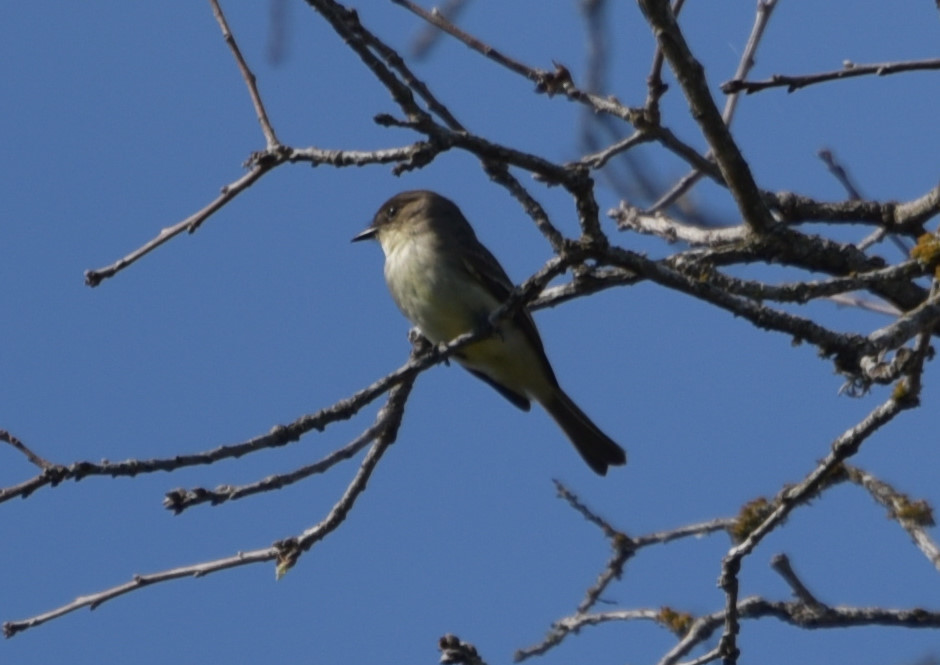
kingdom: Animalia
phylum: Chordata
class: Aves
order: Passeriformes
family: Tyrannidae
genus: Sayornis
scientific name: Sayornis phoebe
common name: Eastern phoebe
